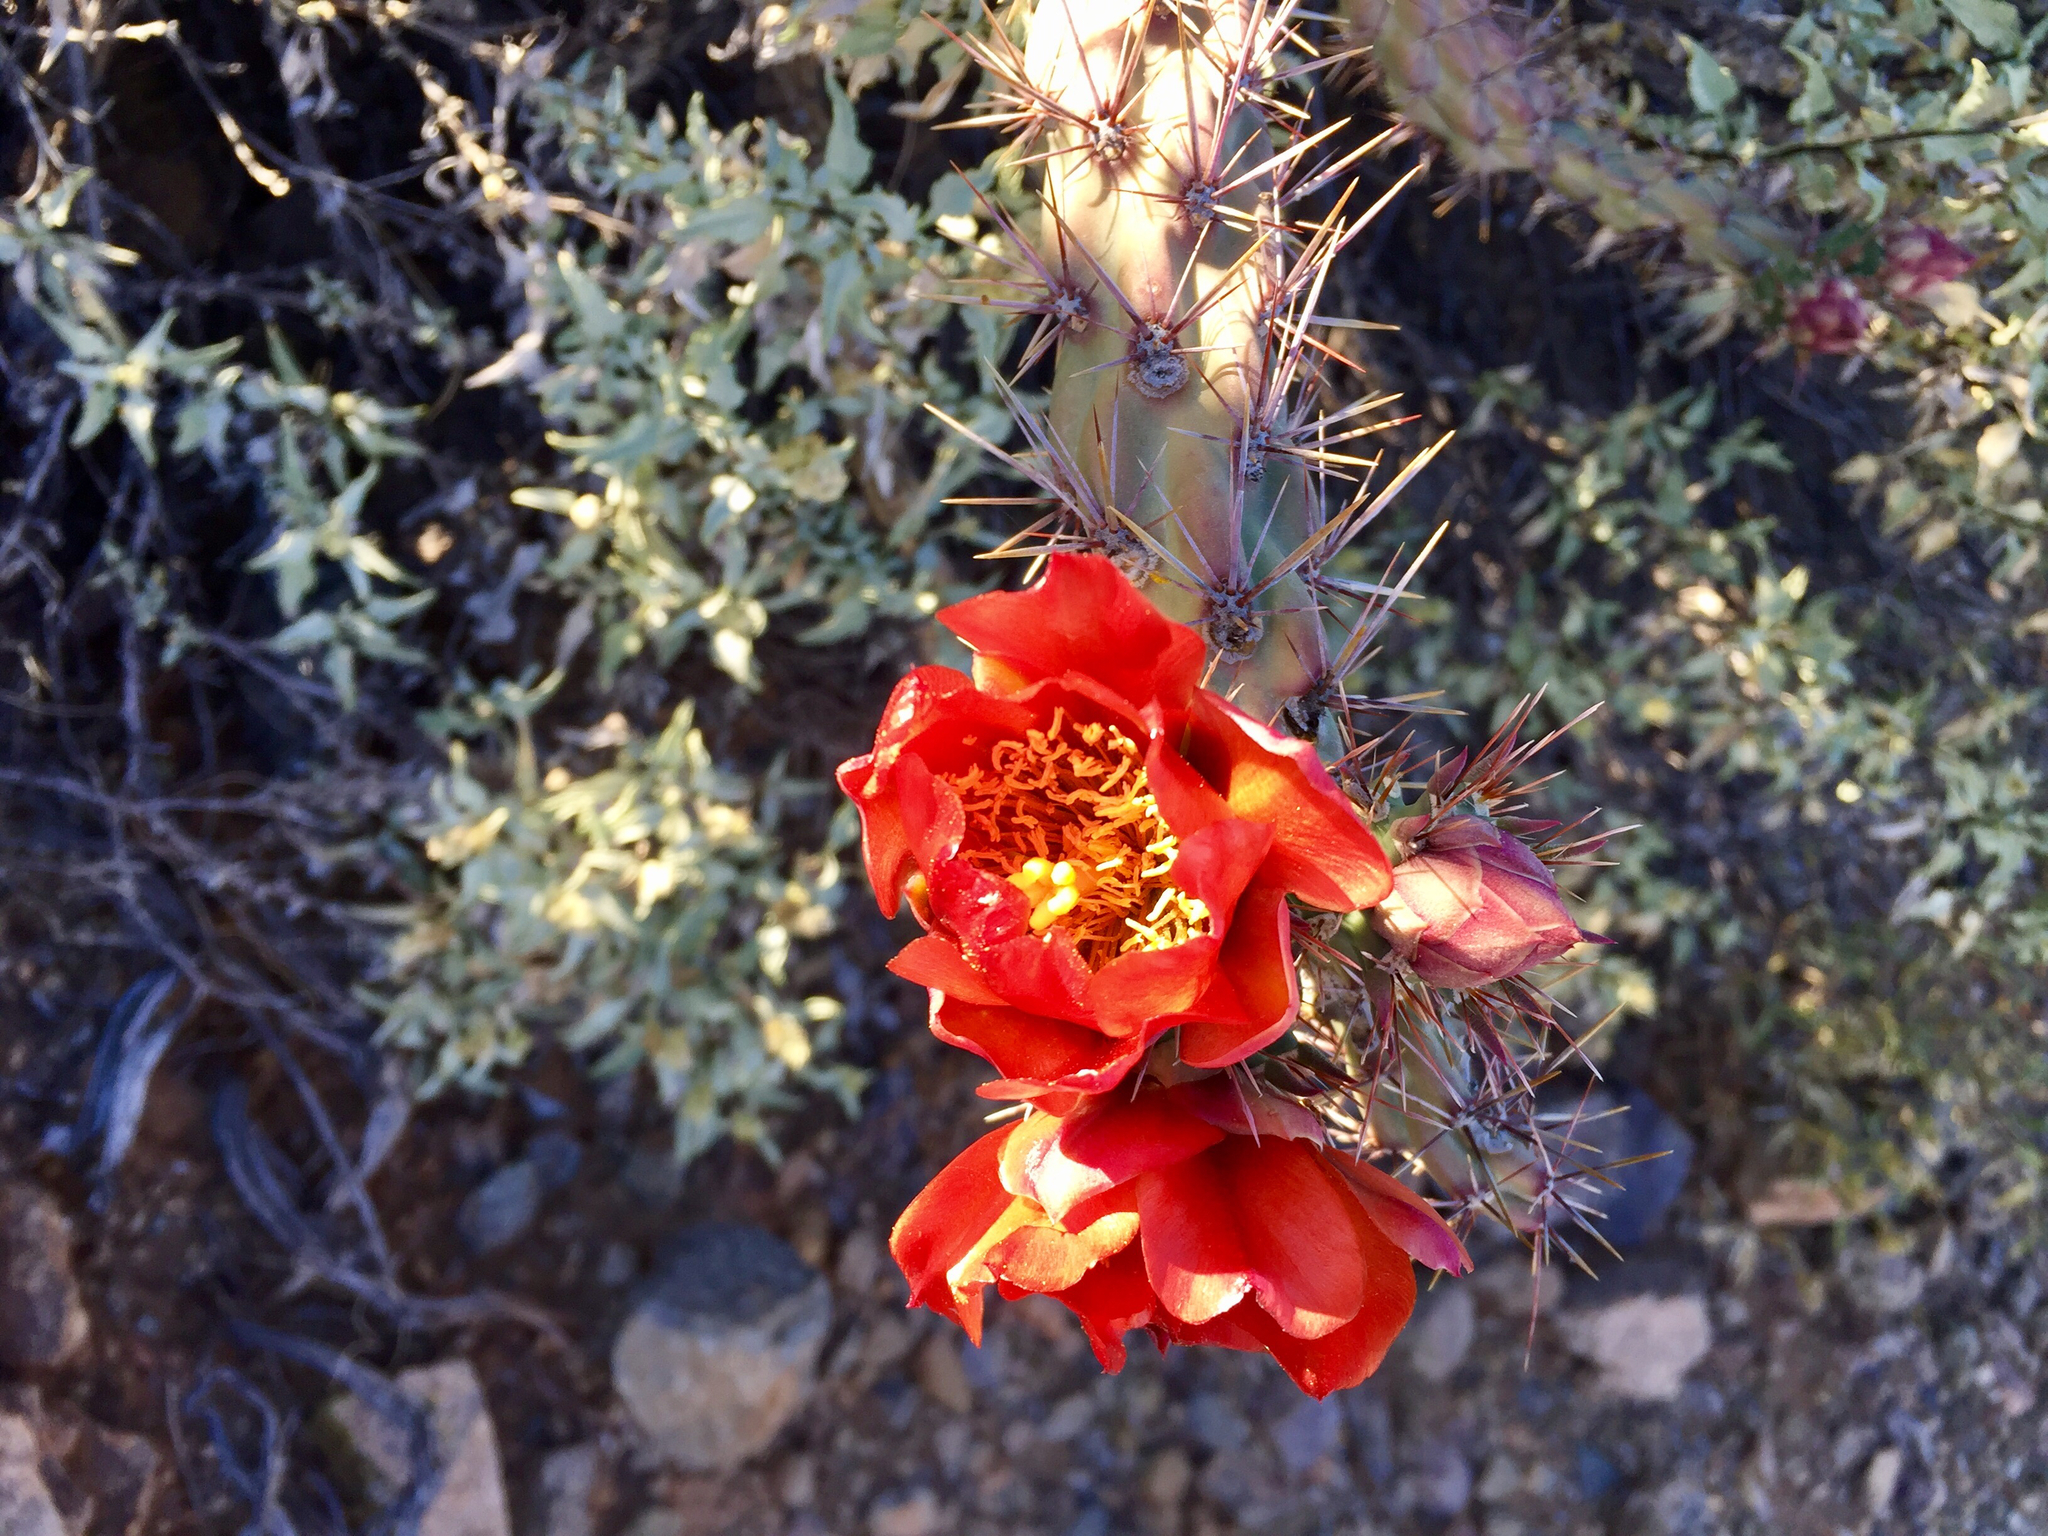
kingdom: Plantae
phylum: Tracheophyta
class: Magnoliopsida
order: Caryophyllales
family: Cactaceae
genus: Cylindropuntia
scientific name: Cylindropuntia thurberi
